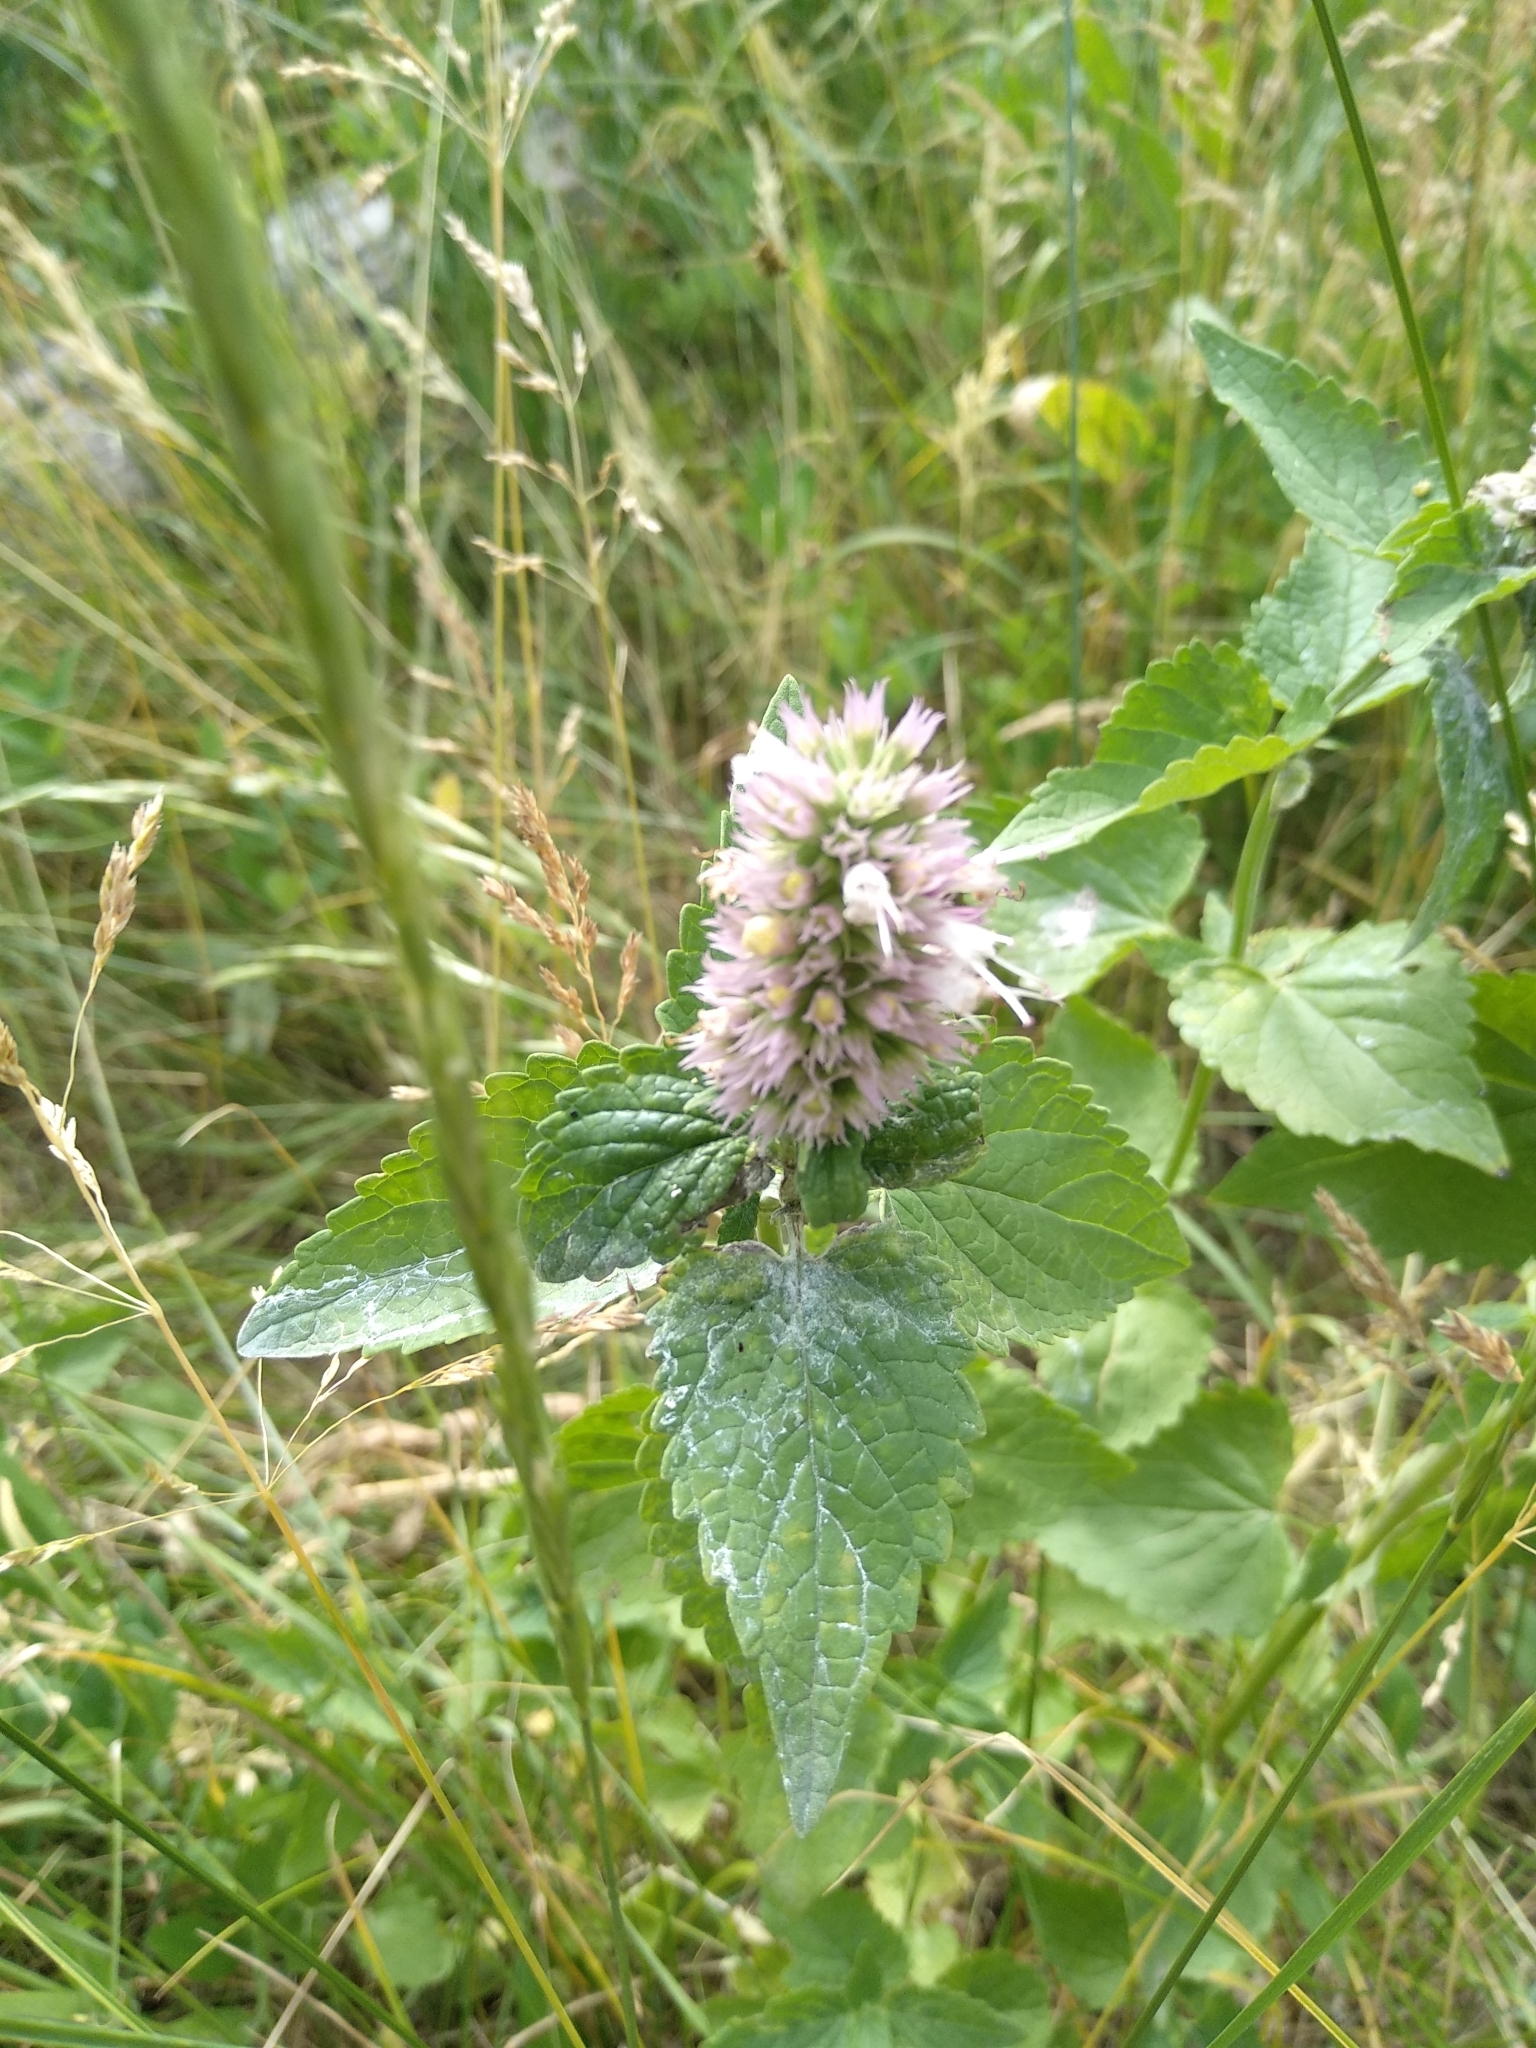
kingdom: Plantae
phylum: Tracheophyta
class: Magnoliopsida
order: Lamiales
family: Lamiaceae
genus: Agastache
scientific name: Agastache urticifolia
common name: Horsemint giant hyssop
